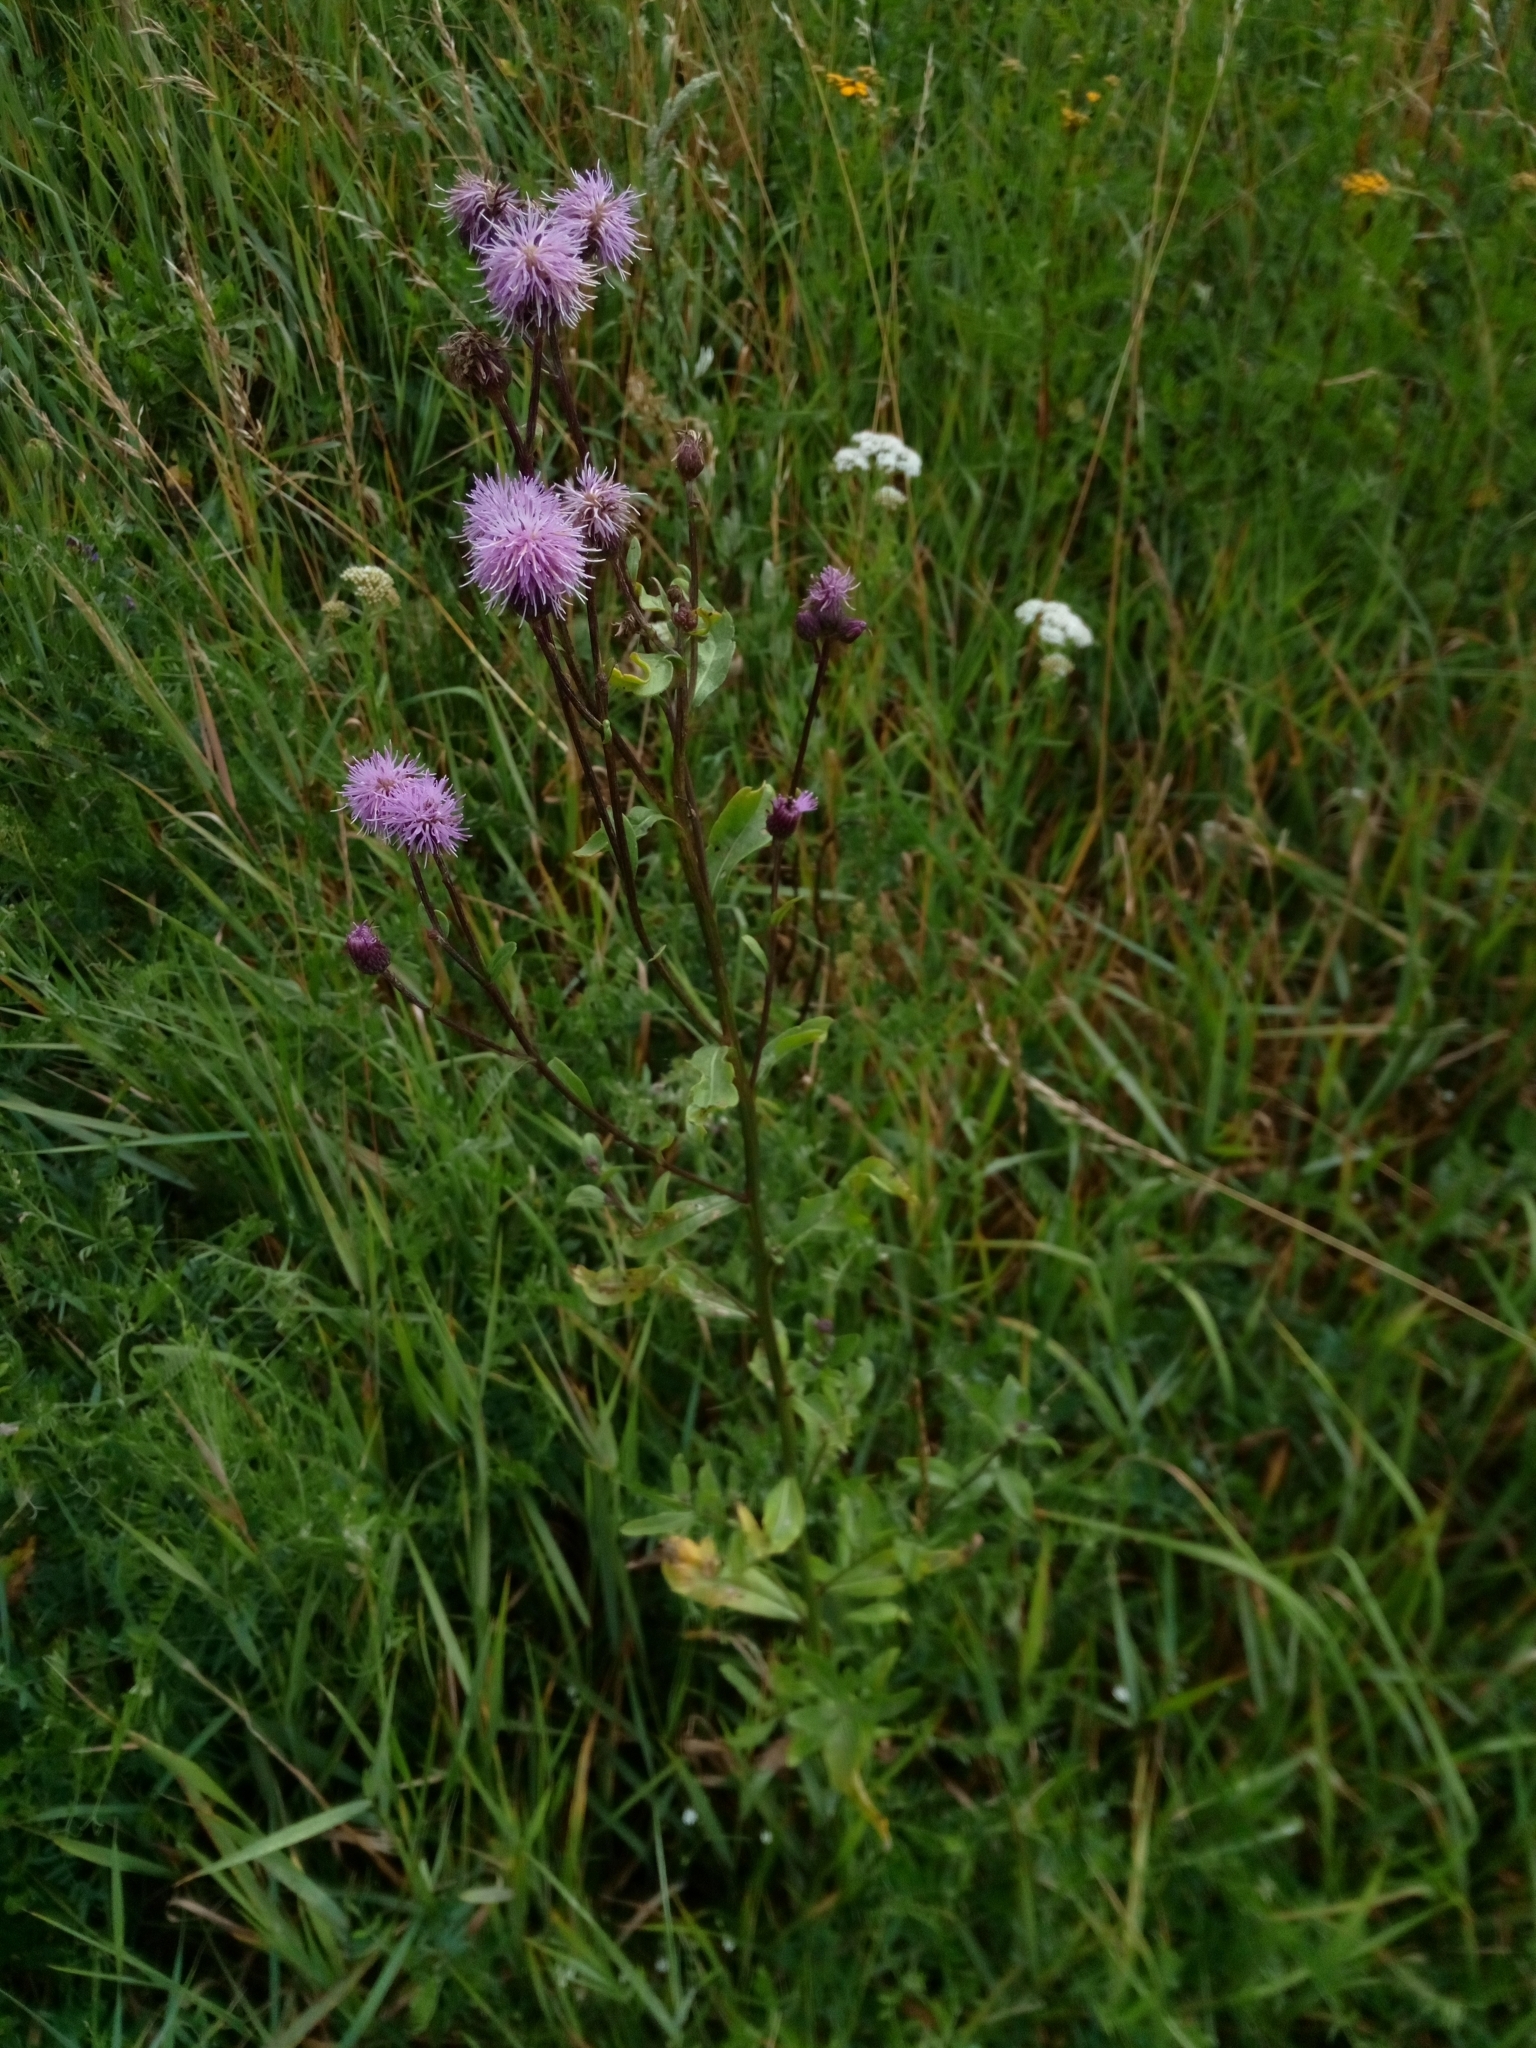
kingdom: Plantae
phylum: Tracheophyta
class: Magnoliopsida
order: Asterales
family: Asteraceae
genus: Cirsium
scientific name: Cirsium arvense
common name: Creeping thistle
